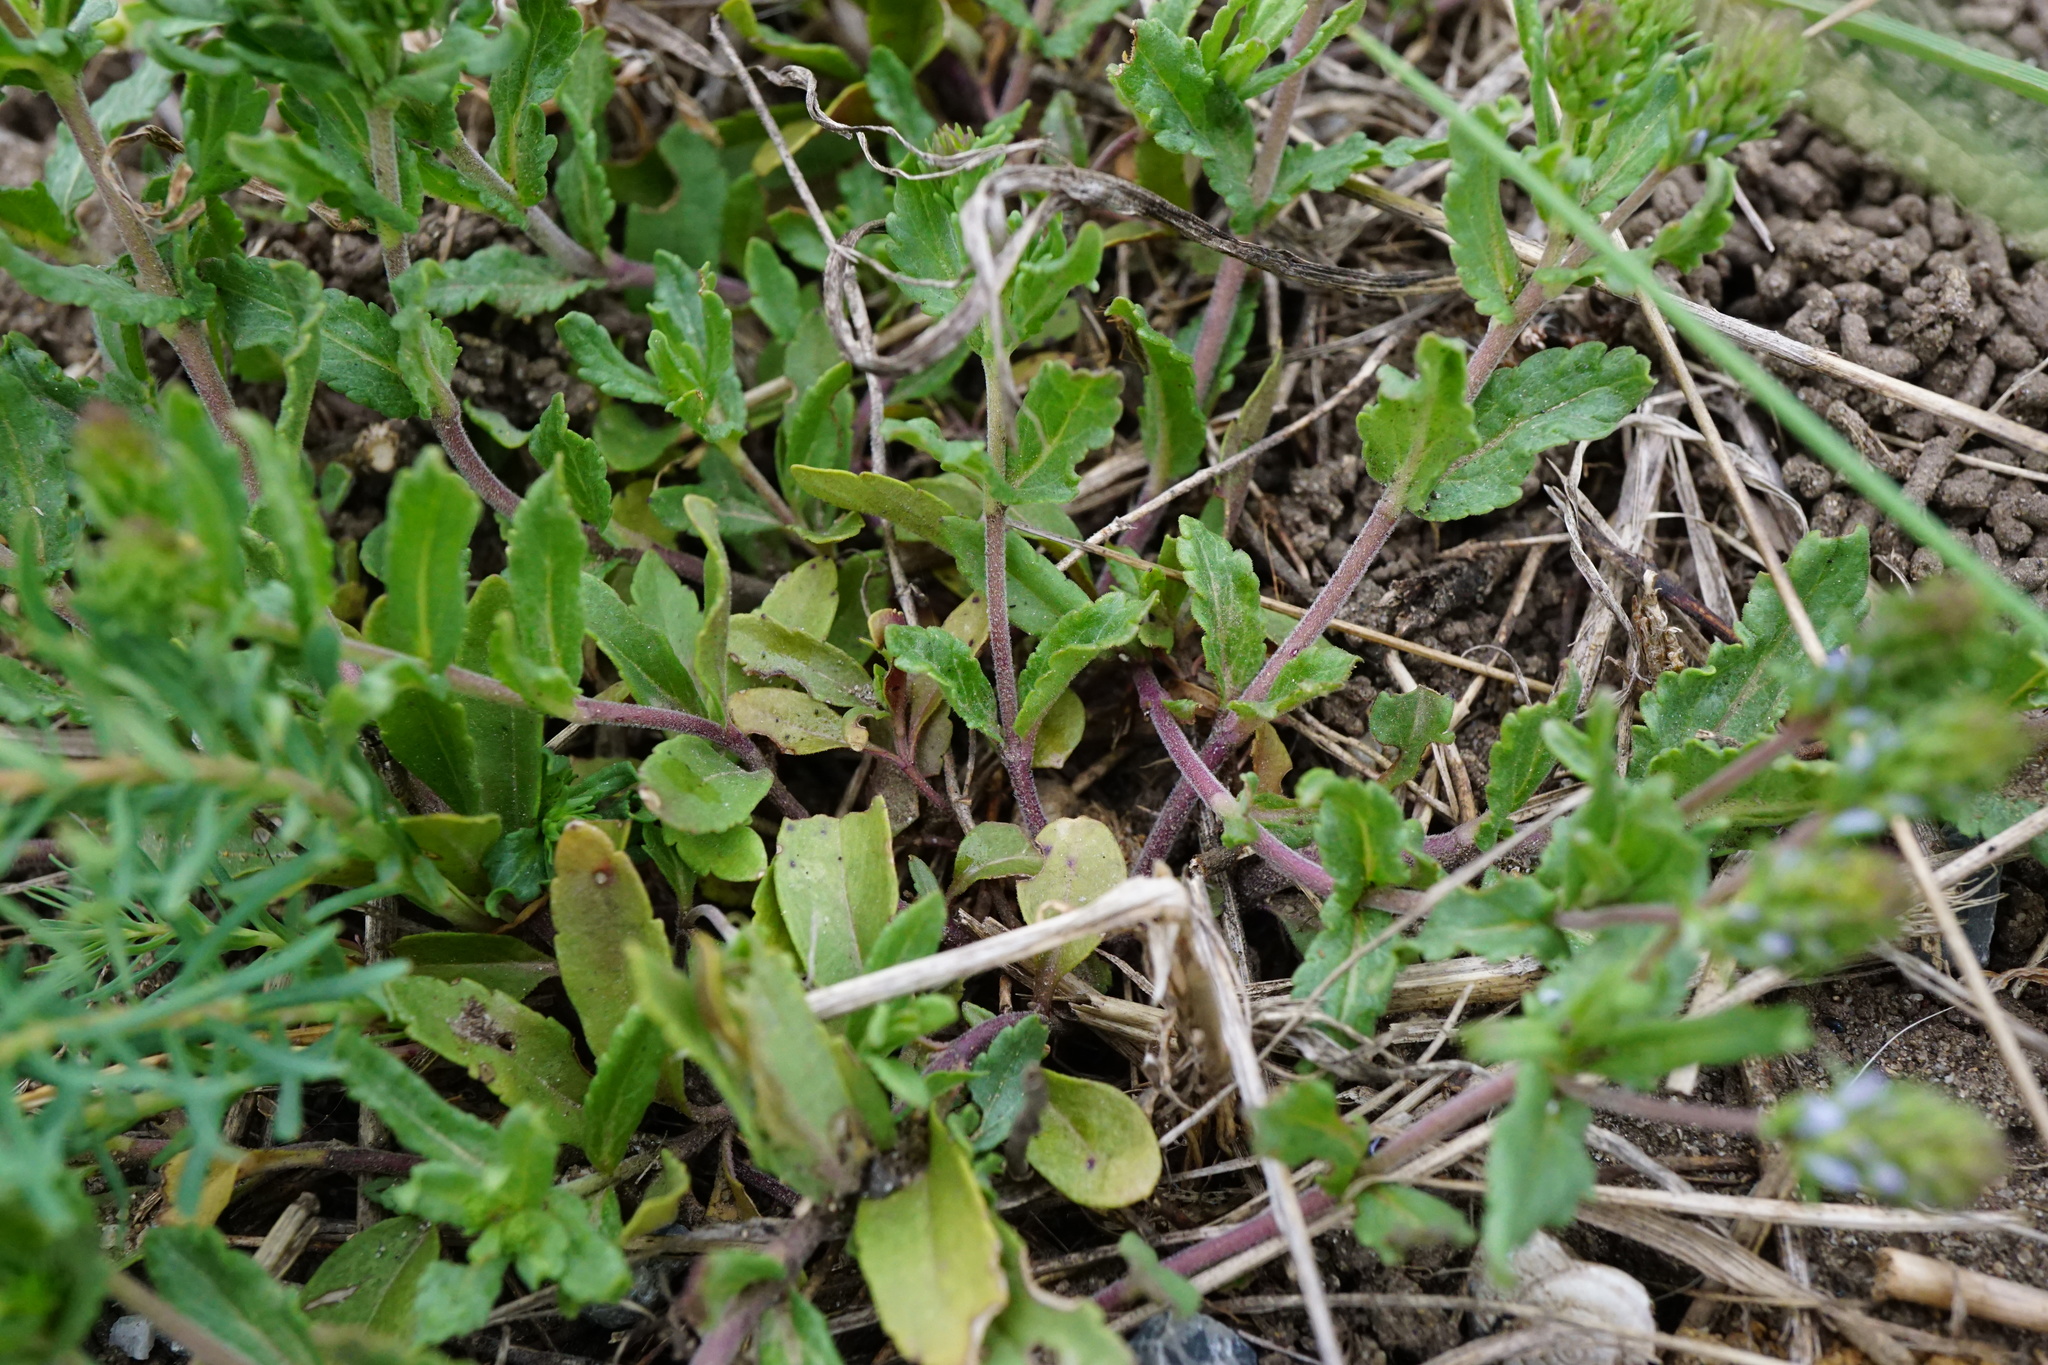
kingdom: Plantae
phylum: Tracheophyta
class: Magnoliopsida
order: Lamiales
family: Plantaginaceae
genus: Veronica
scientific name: Veronica prostrata
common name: Prostrate speedwell
